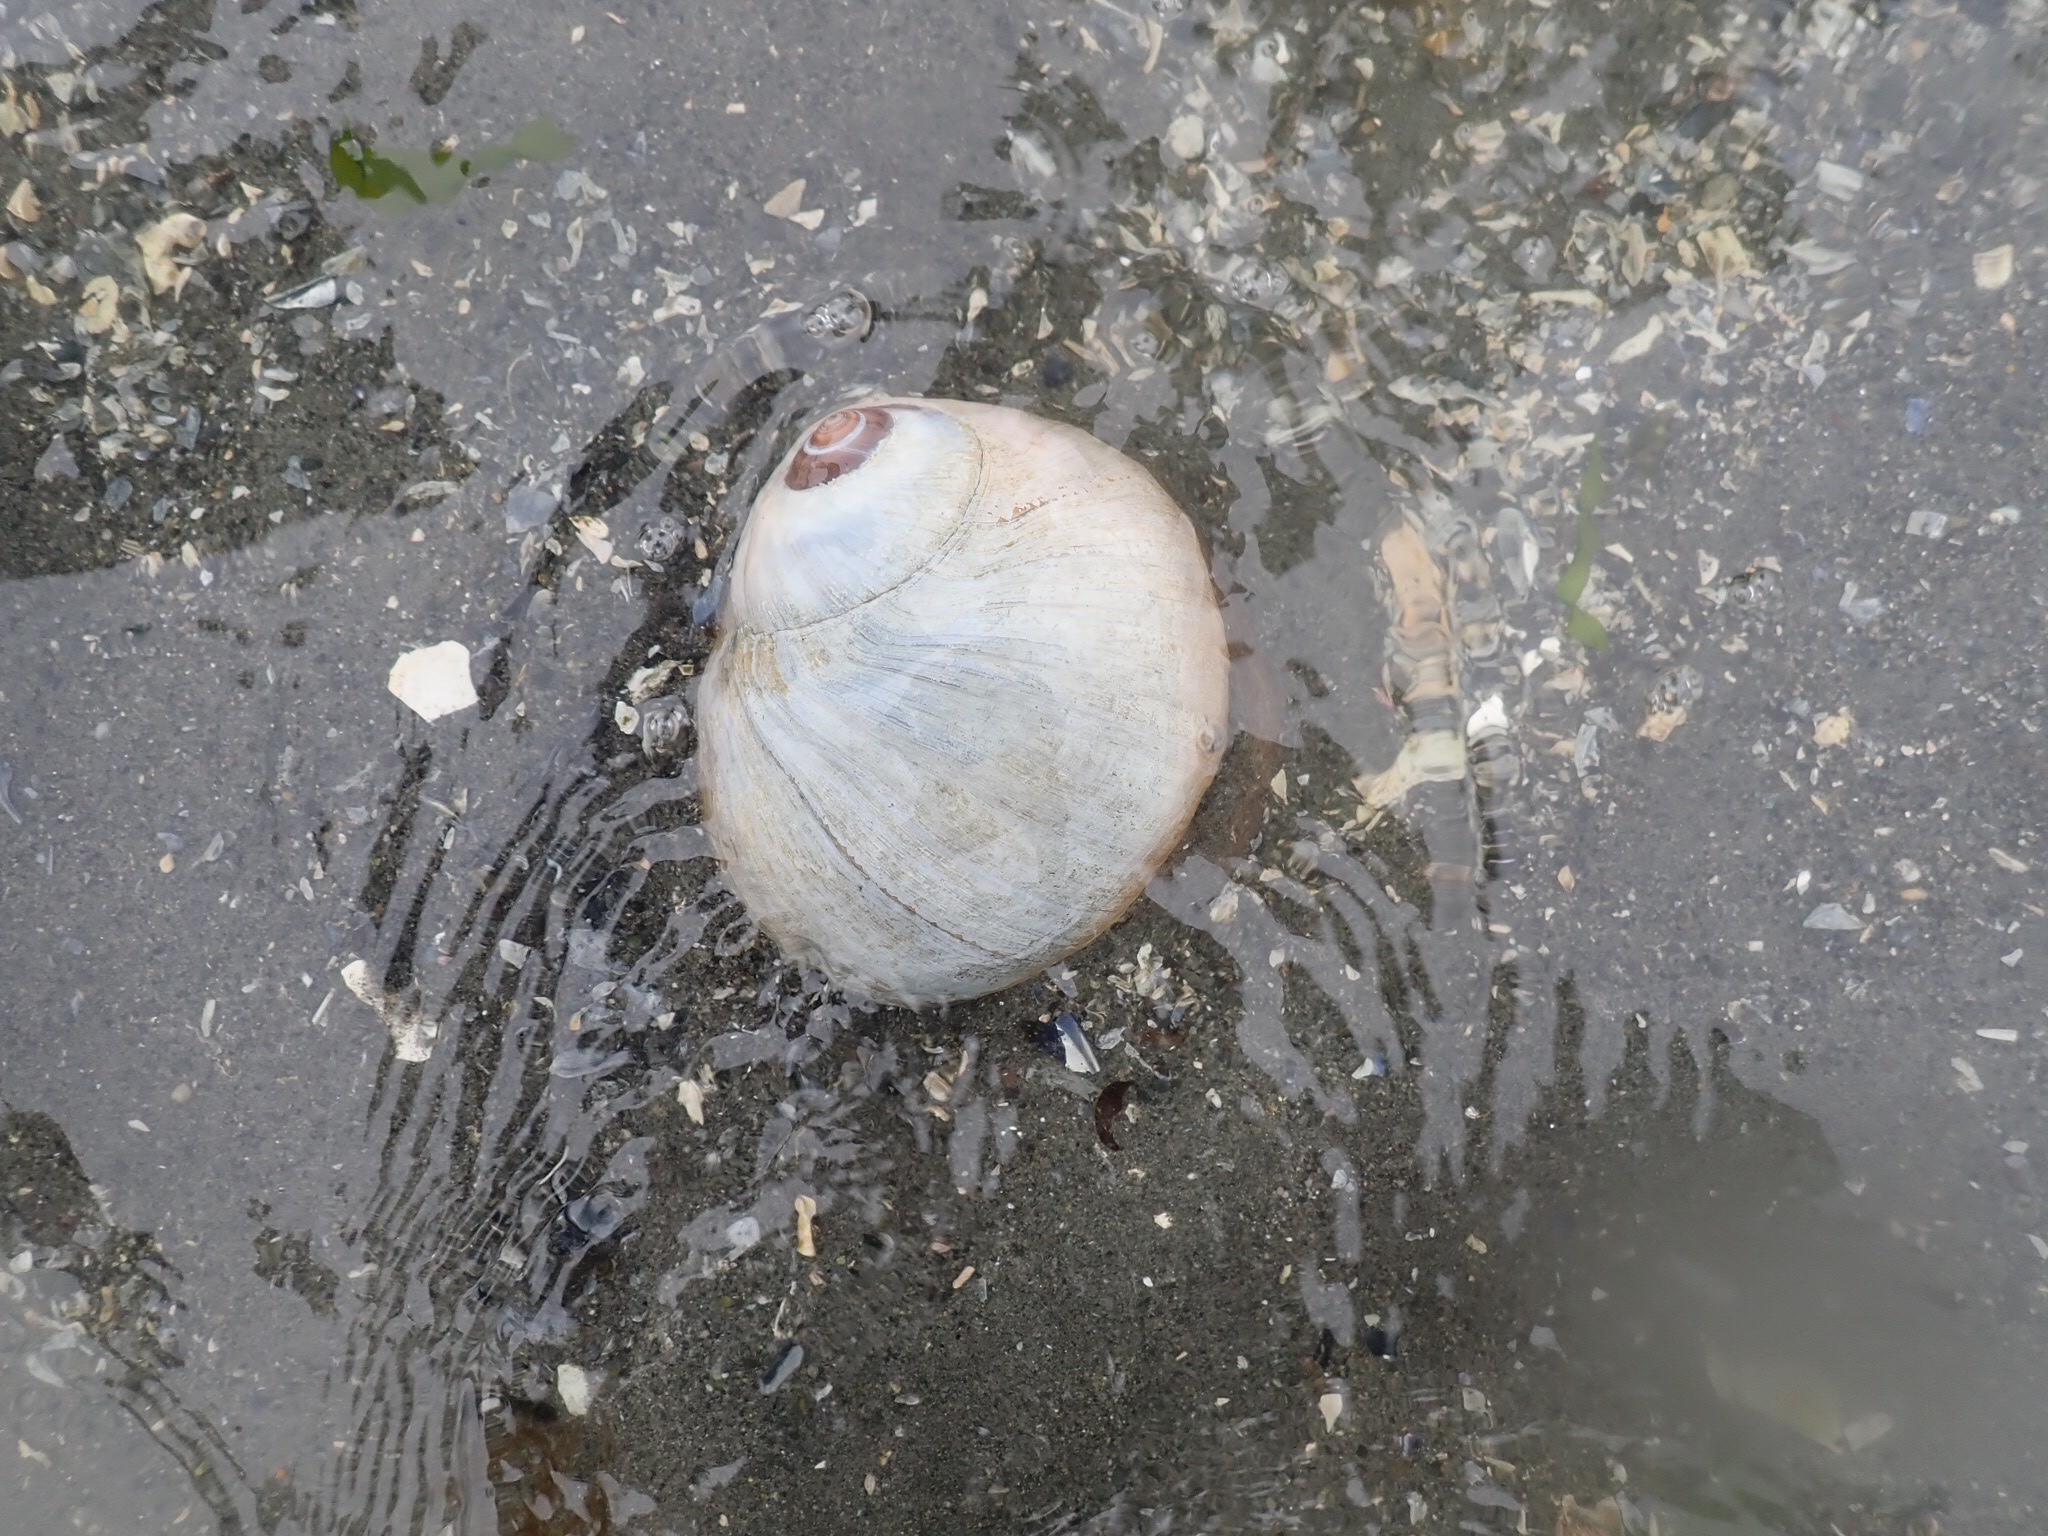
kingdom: Animalia
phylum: Mollusca
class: Gastropoda
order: Littorinimorpha
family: Naticidae
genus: Neverita
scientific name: Neverita lewisii
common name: Lewis' moonsnail
